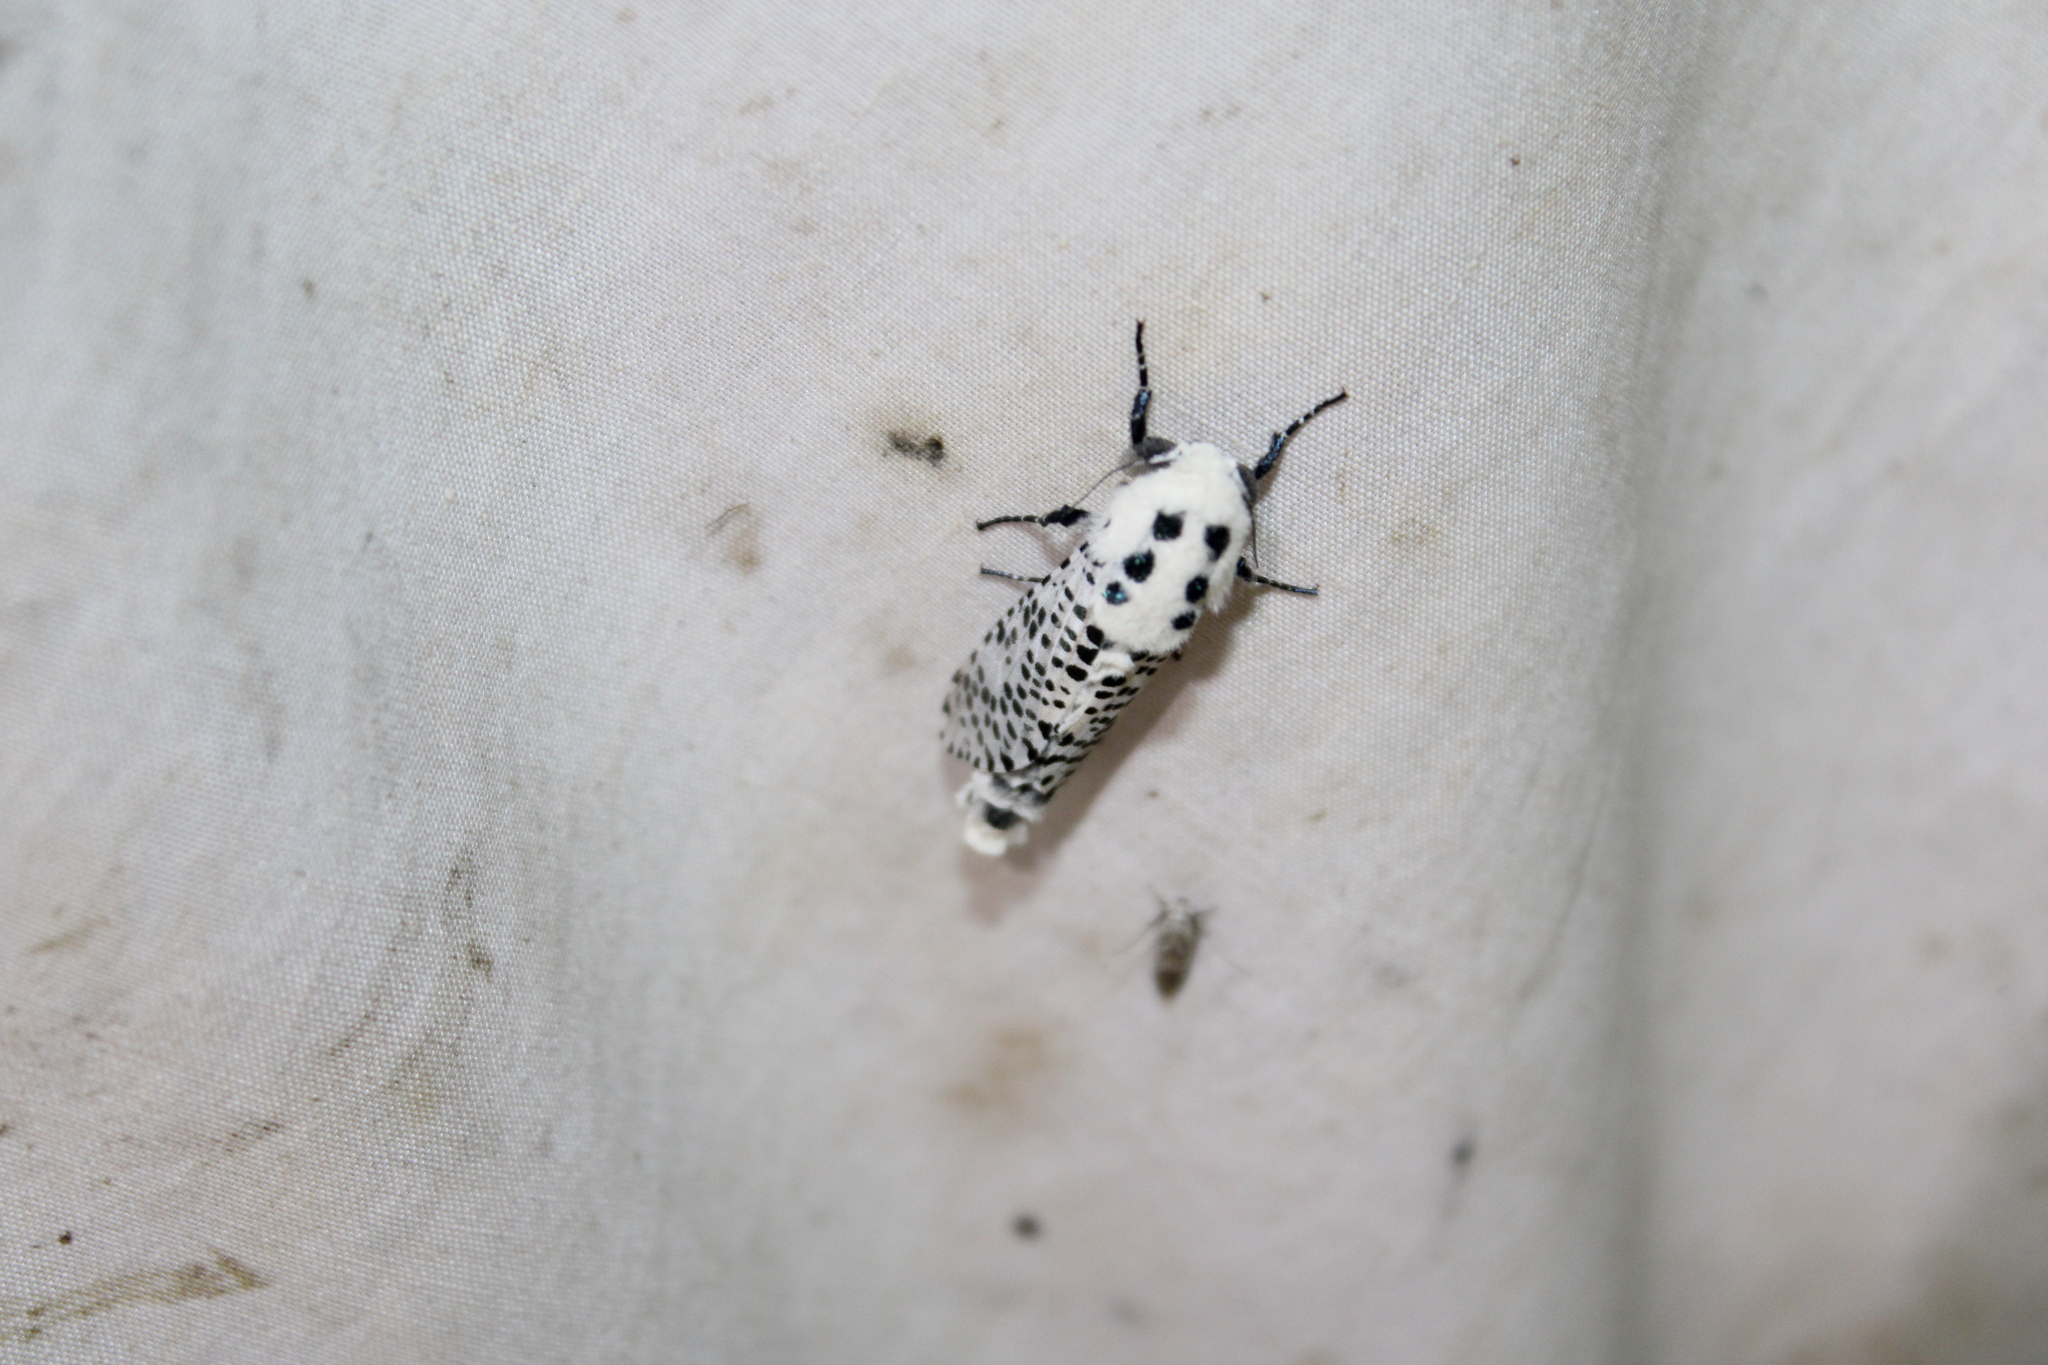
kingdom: Animalia
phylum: Arthropoda
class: Insecta
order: Lepidoptera
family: Cossidae
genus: Zeuzera
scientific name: Zeuzera pyrina
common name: Leopard moth
